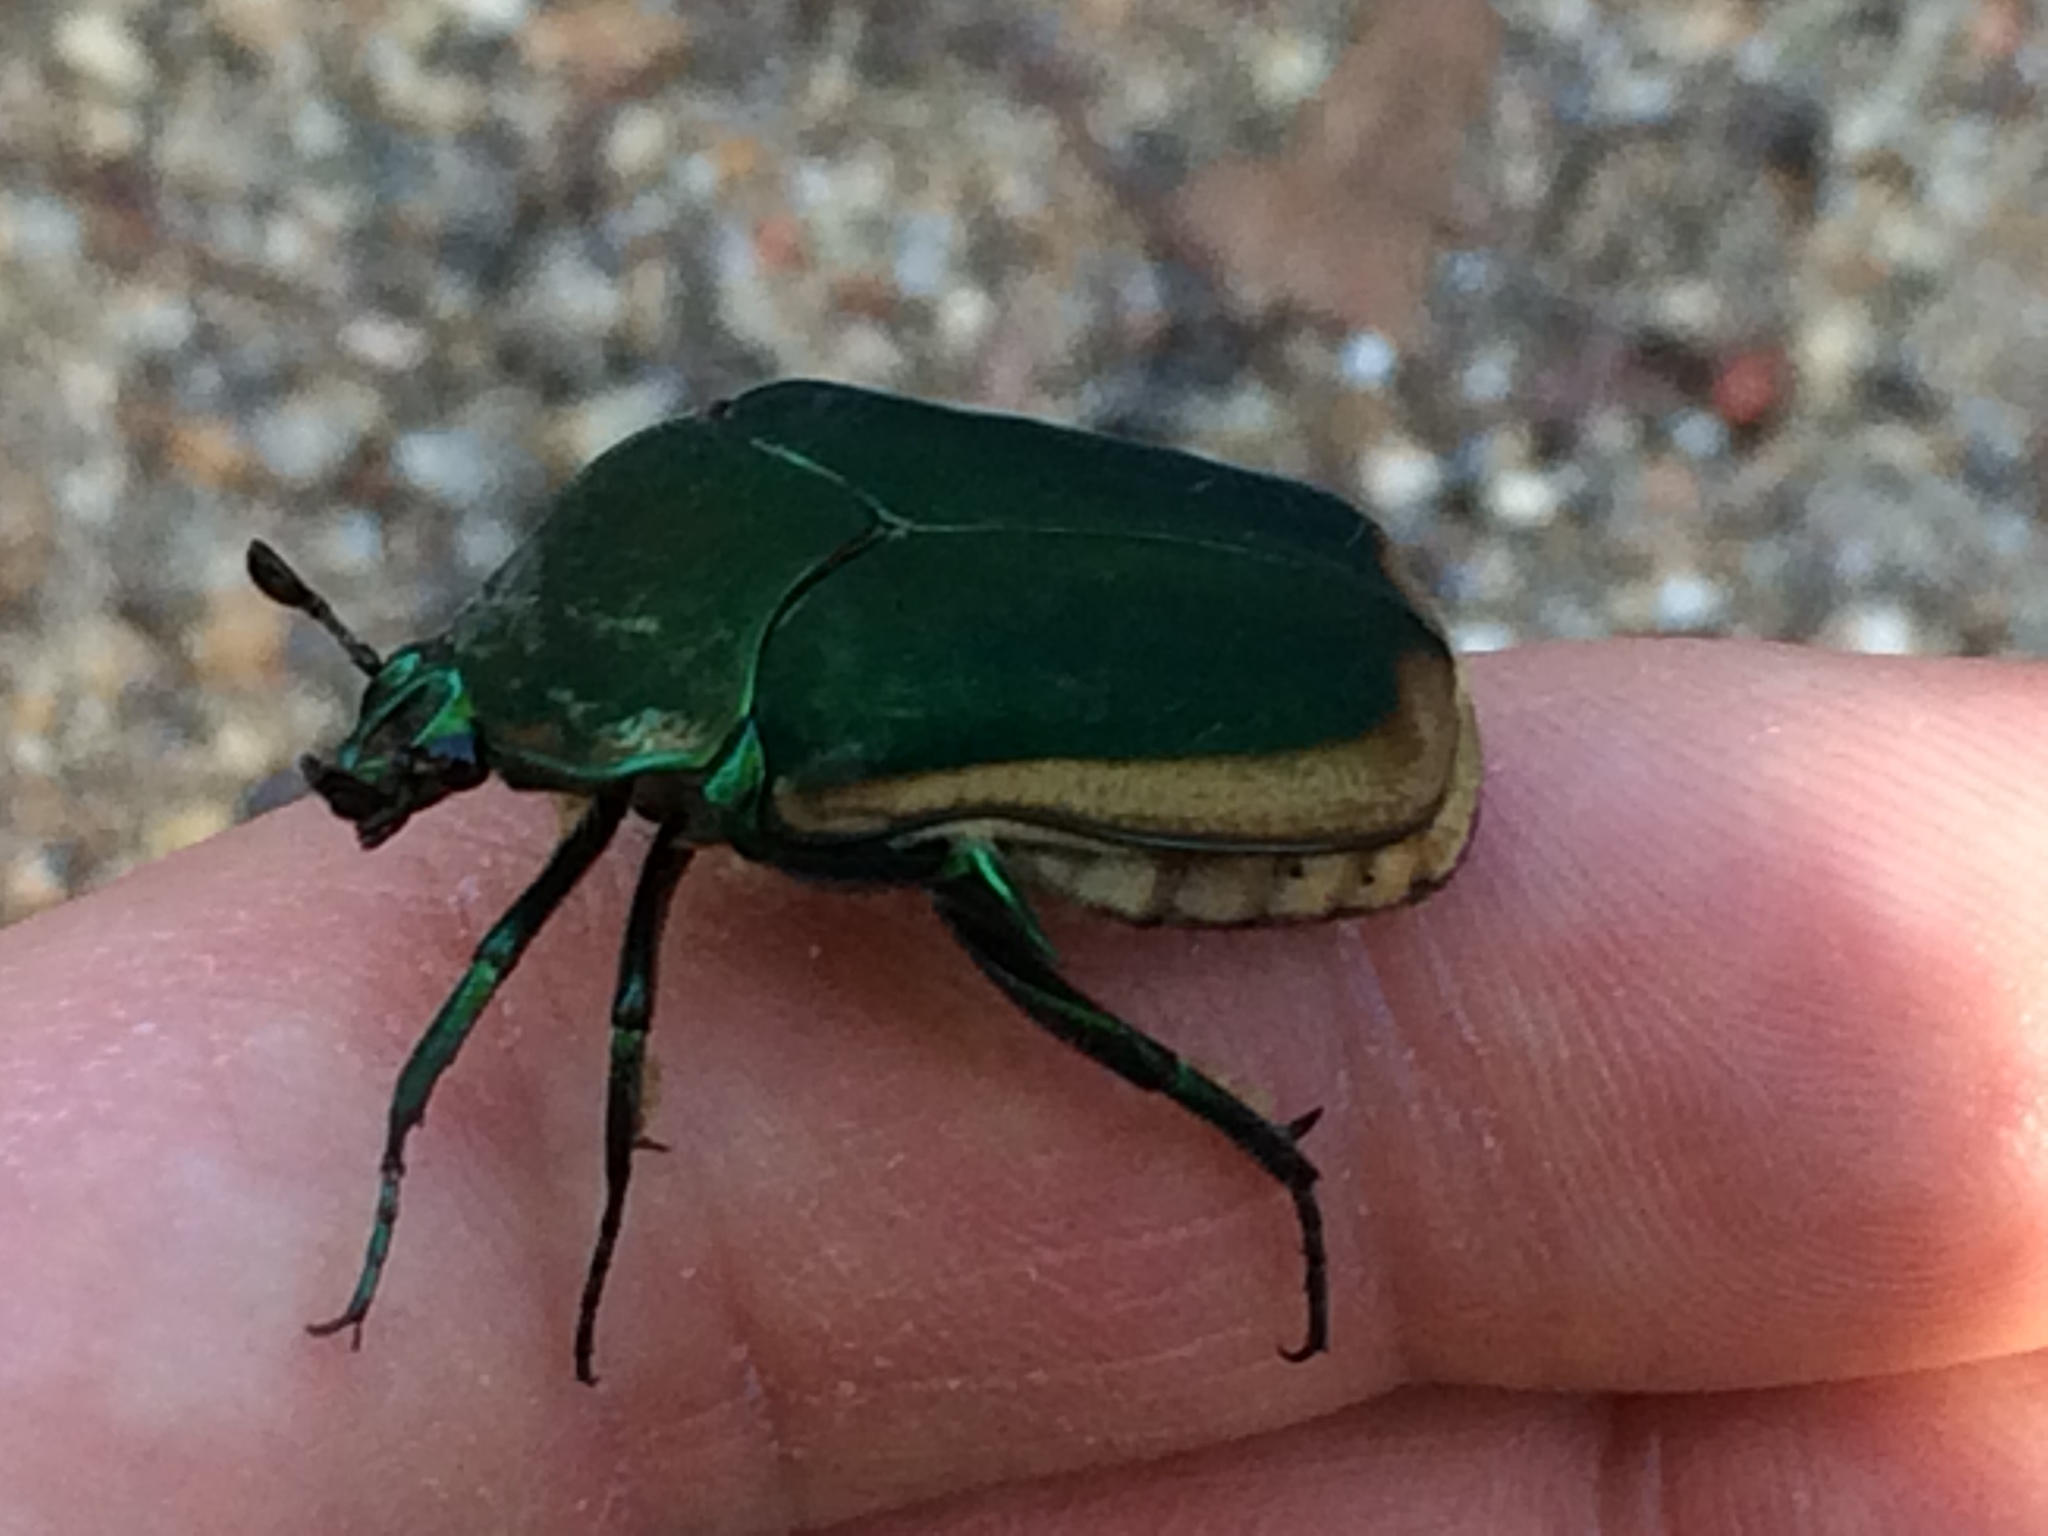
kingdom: Animalia
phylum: Arthropoda
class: Insecta
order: Coleoptera
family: Scarabaeidae
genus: Cotinis
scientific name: Cotinis mutabilis
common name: Figeater beetle
